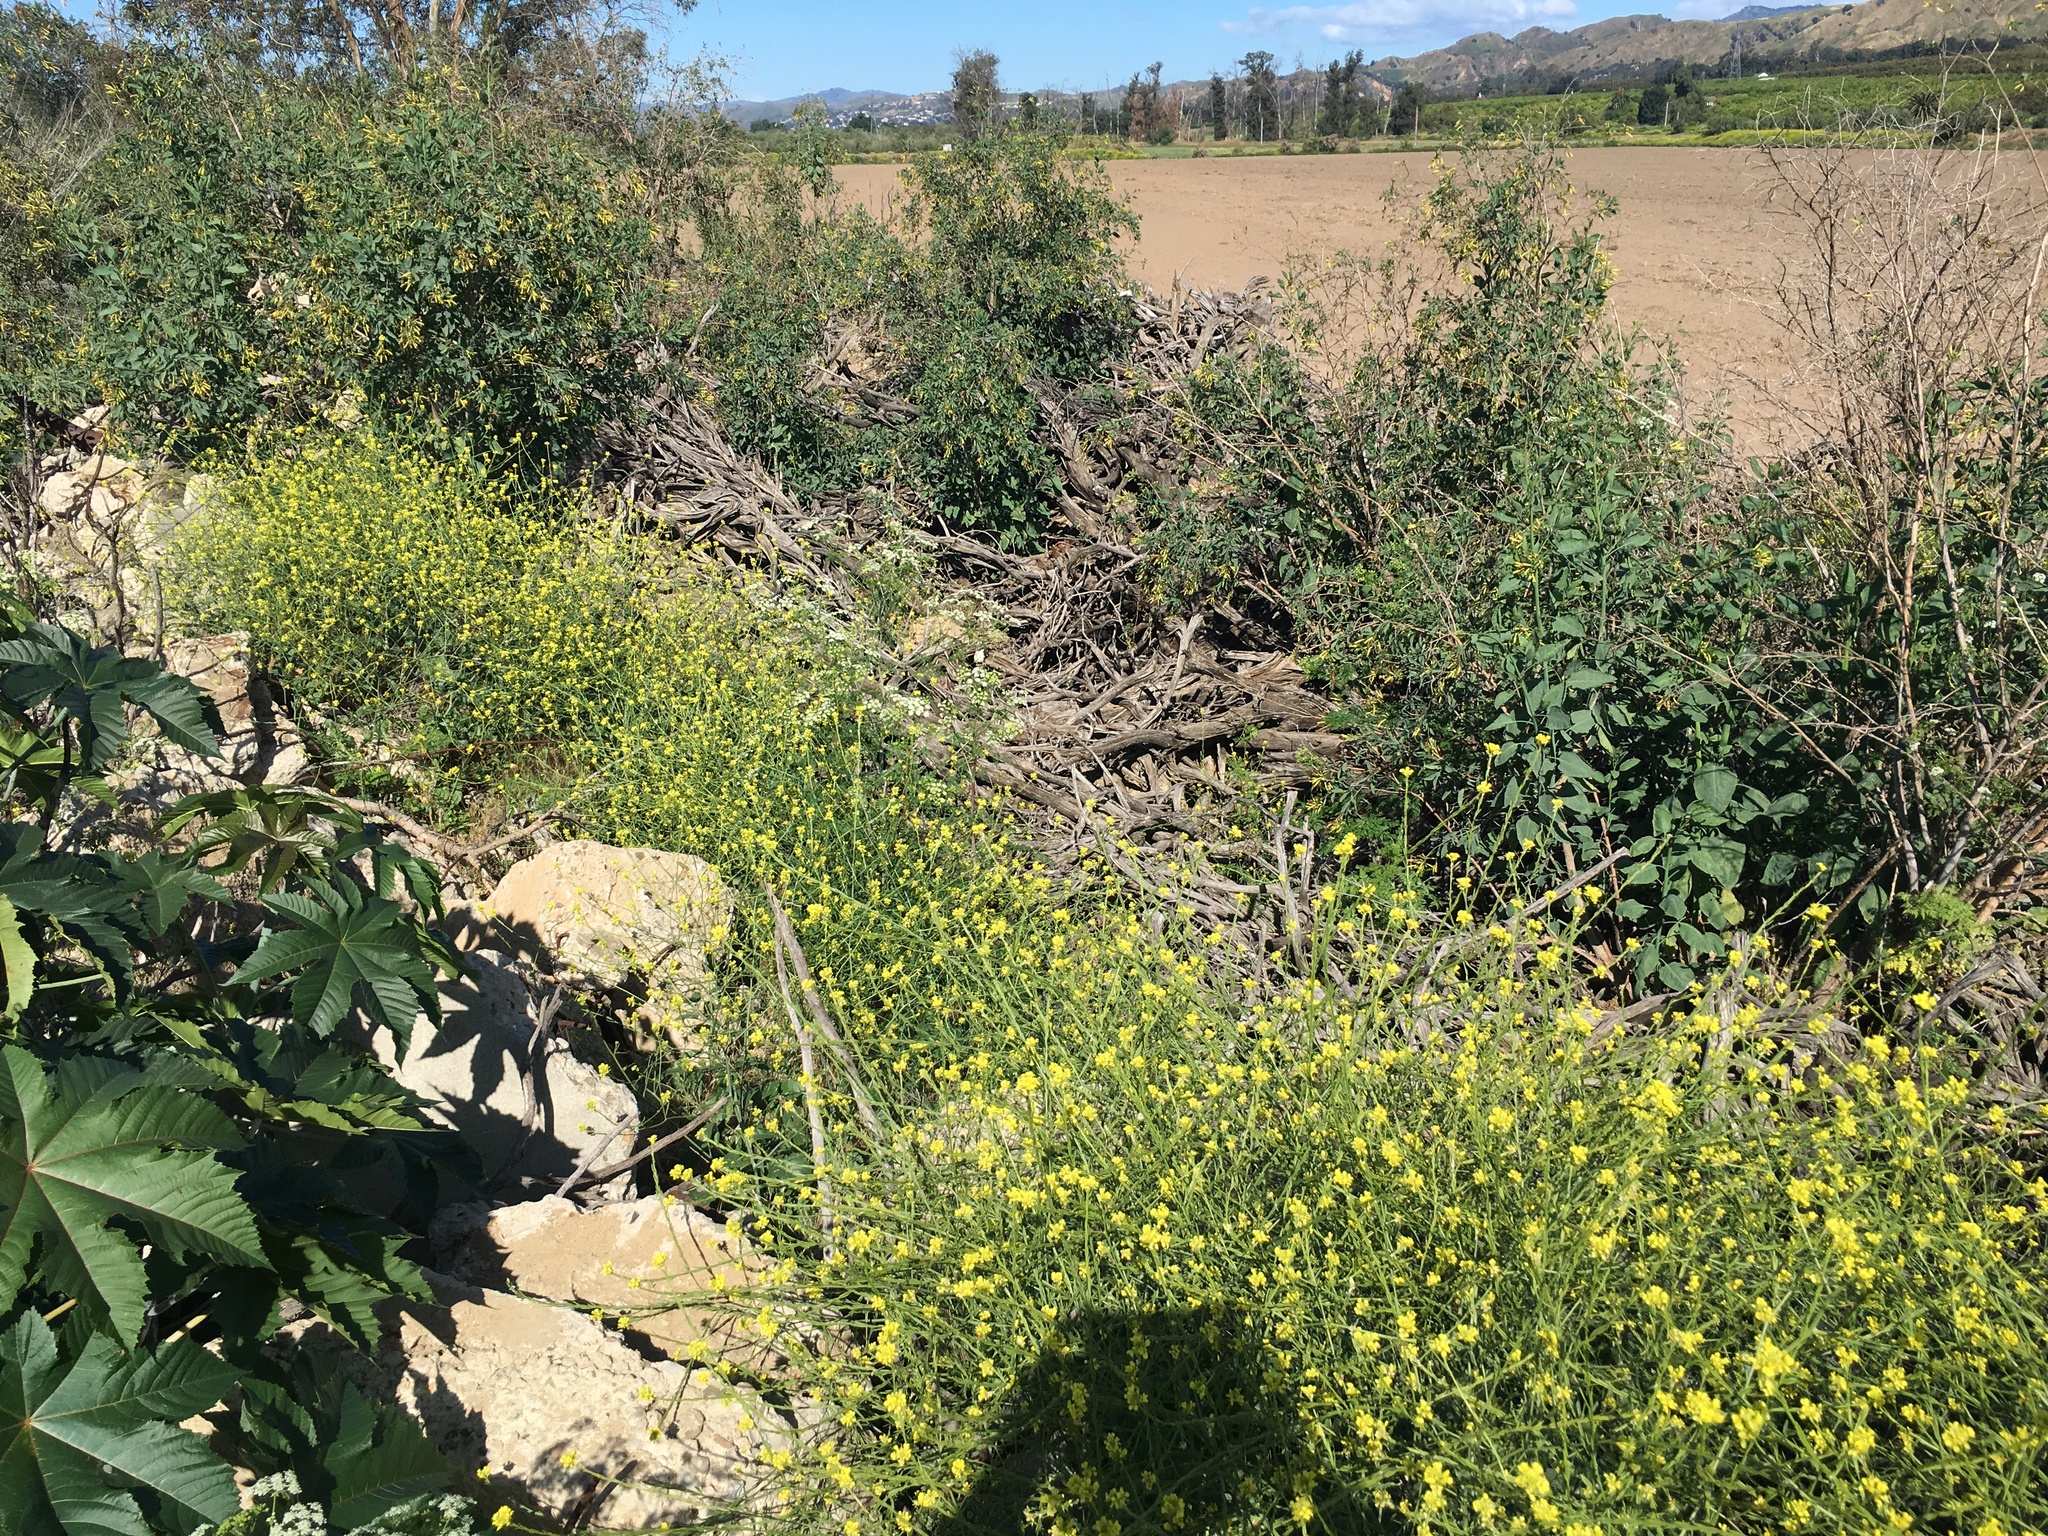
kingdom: Plantae
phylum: Tracheophyta
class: Magnoliopsida
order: Solanales
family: Solanaceae
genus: Nicotiana
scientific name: Nicotiana glauca
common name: Tree tobacco
